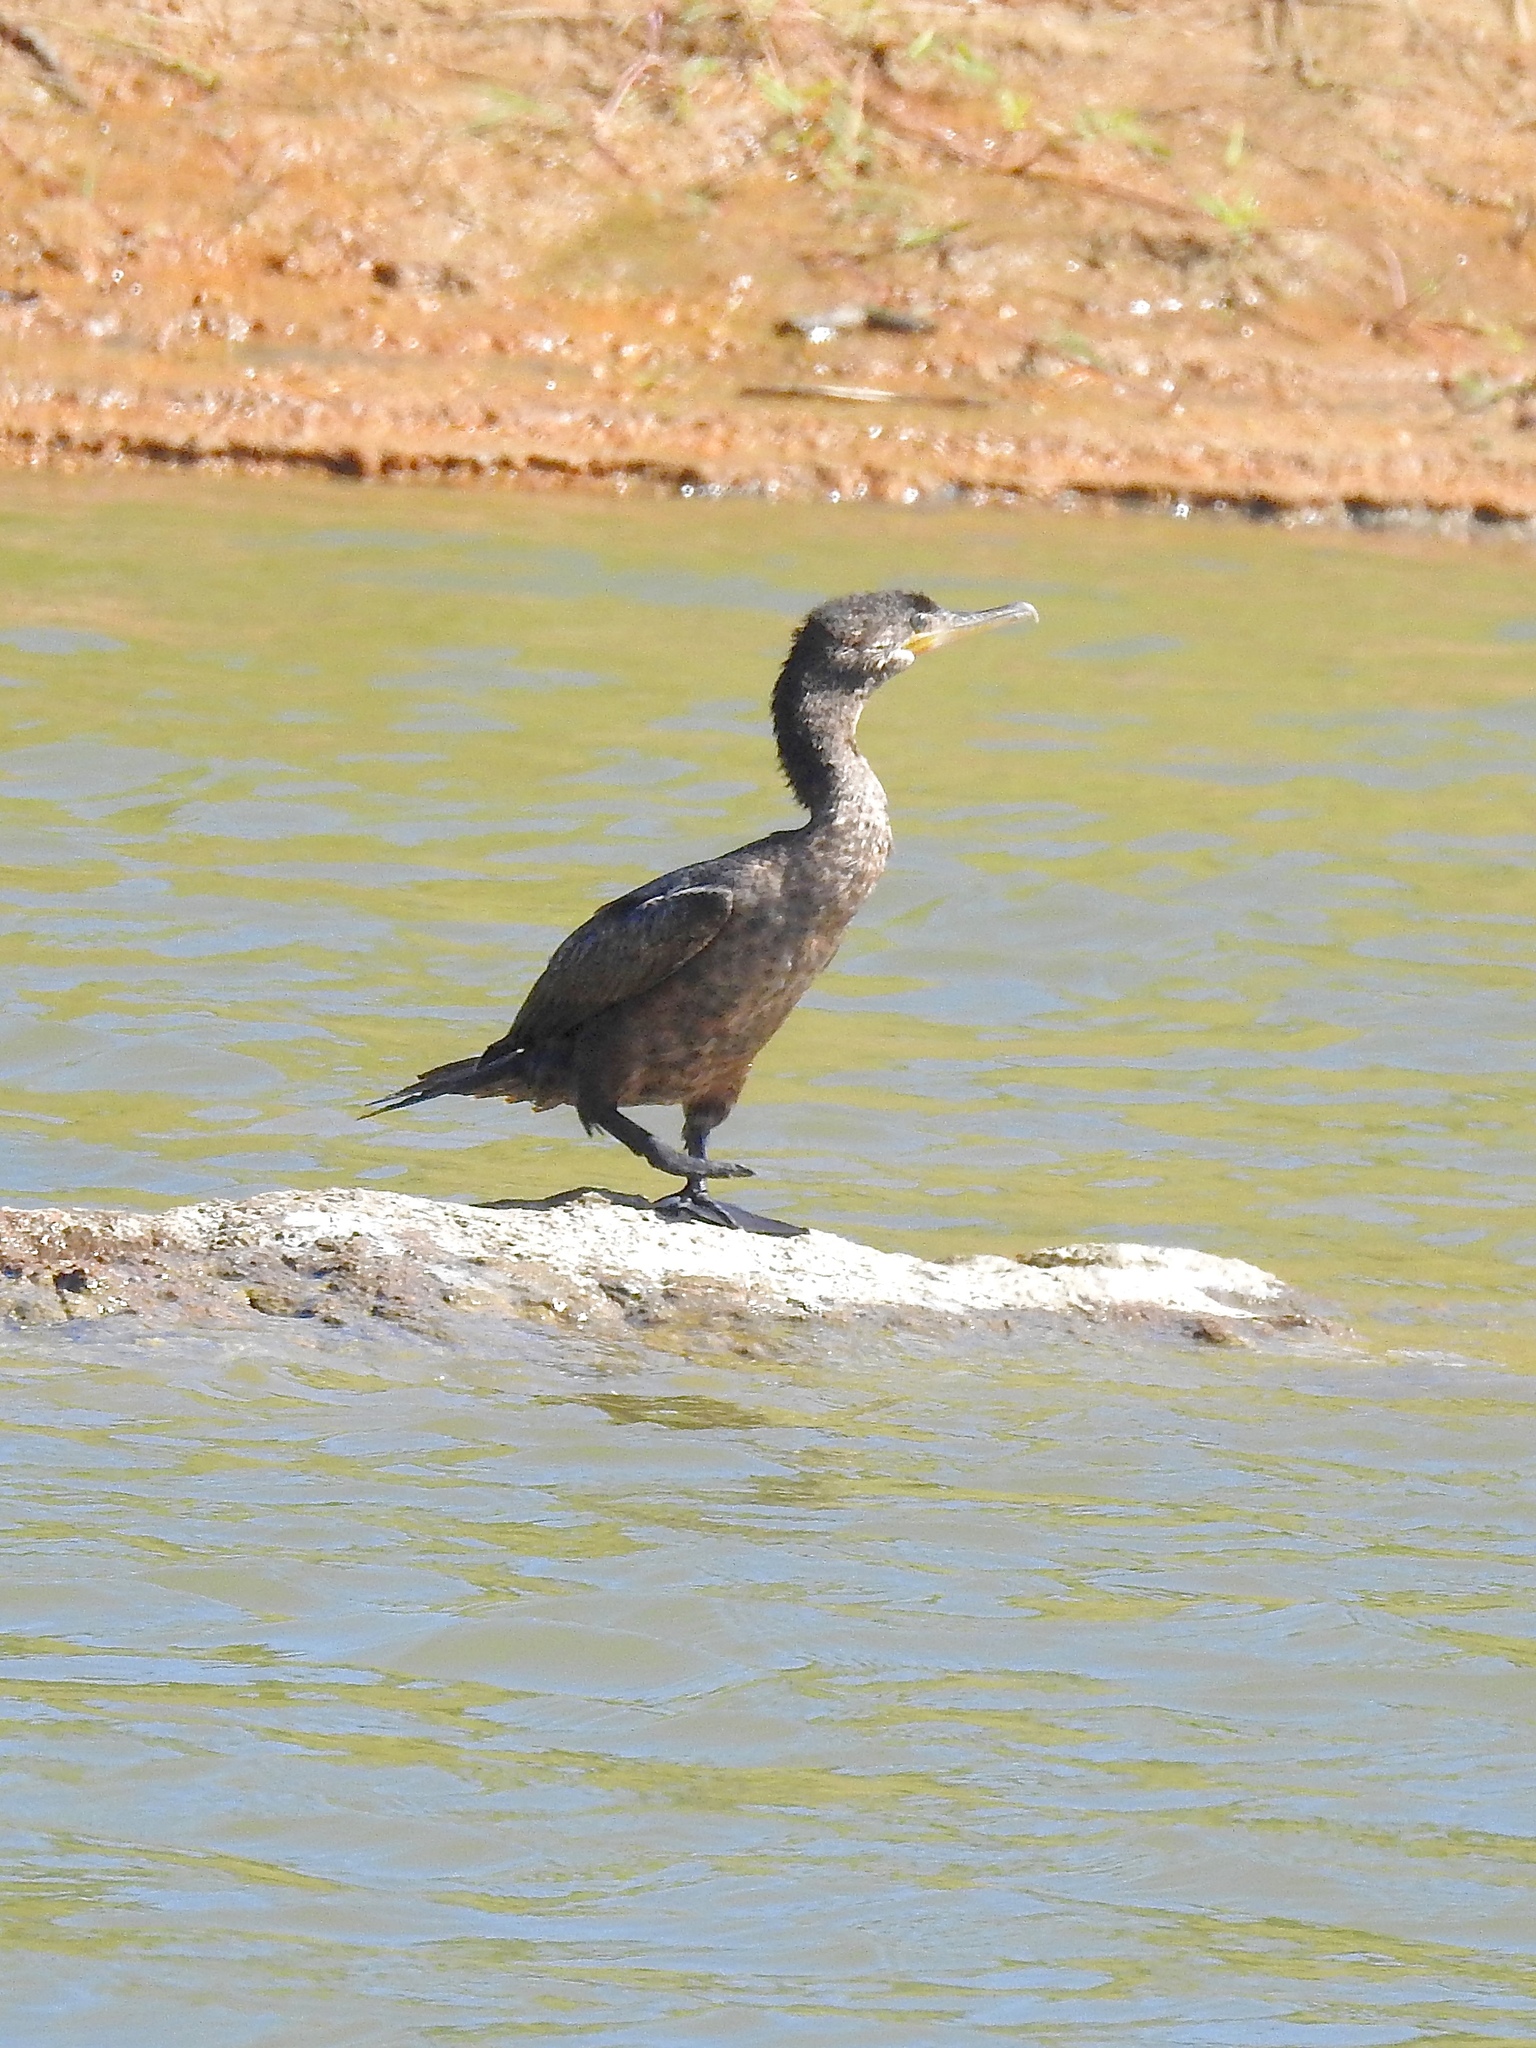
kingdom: Animalia
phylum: Chordata
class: Aves
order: Suliformes
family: Phalacrocoracidae
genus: Phalacrocorax
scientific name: Phalacrocorax brasilianus
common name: Neotropic cormorant
